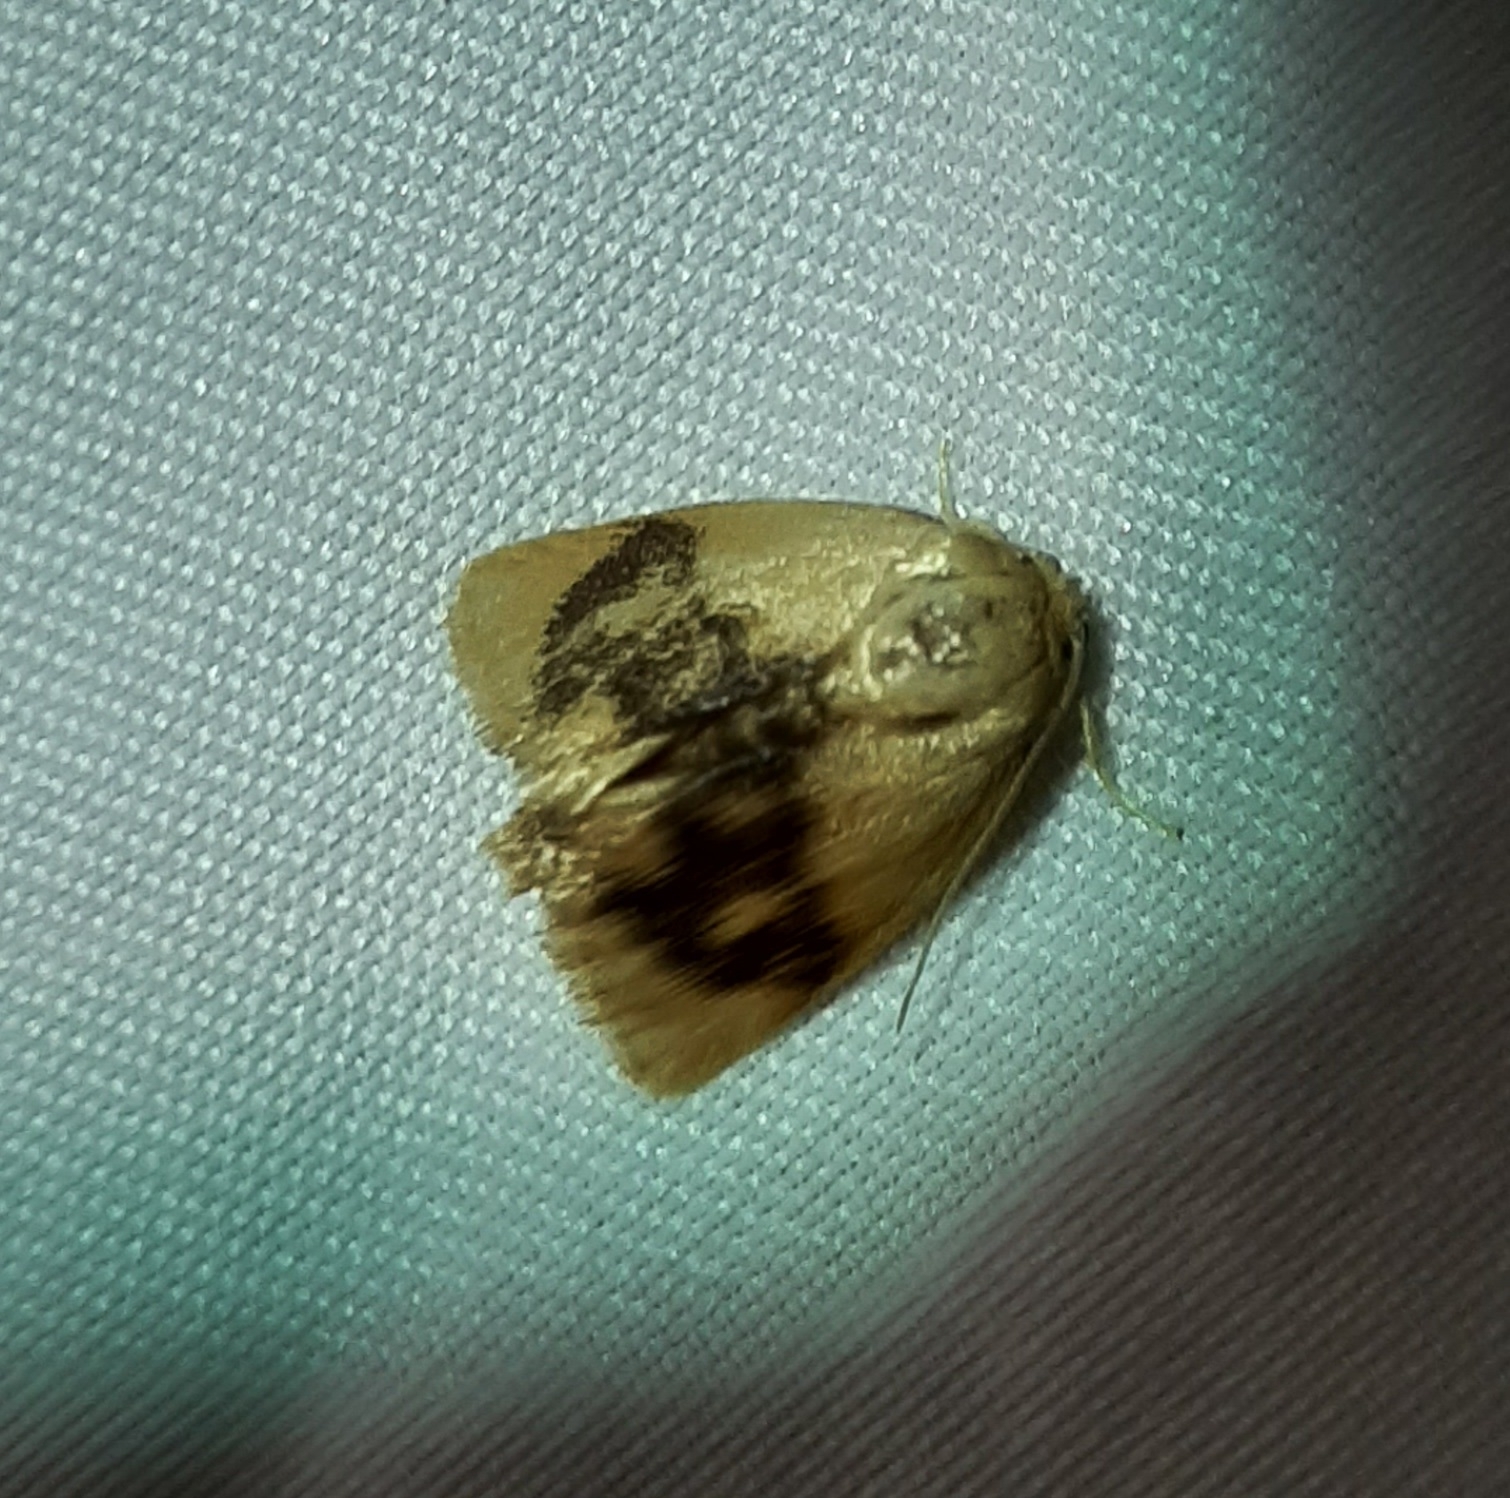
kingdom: Animalia
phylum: Arthropoda
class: Insecta
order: Lepidoptera
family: Limacodidae
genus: Tortricidia
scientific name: Tortricidia flexuosa
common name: Abbreviated button slug moth
